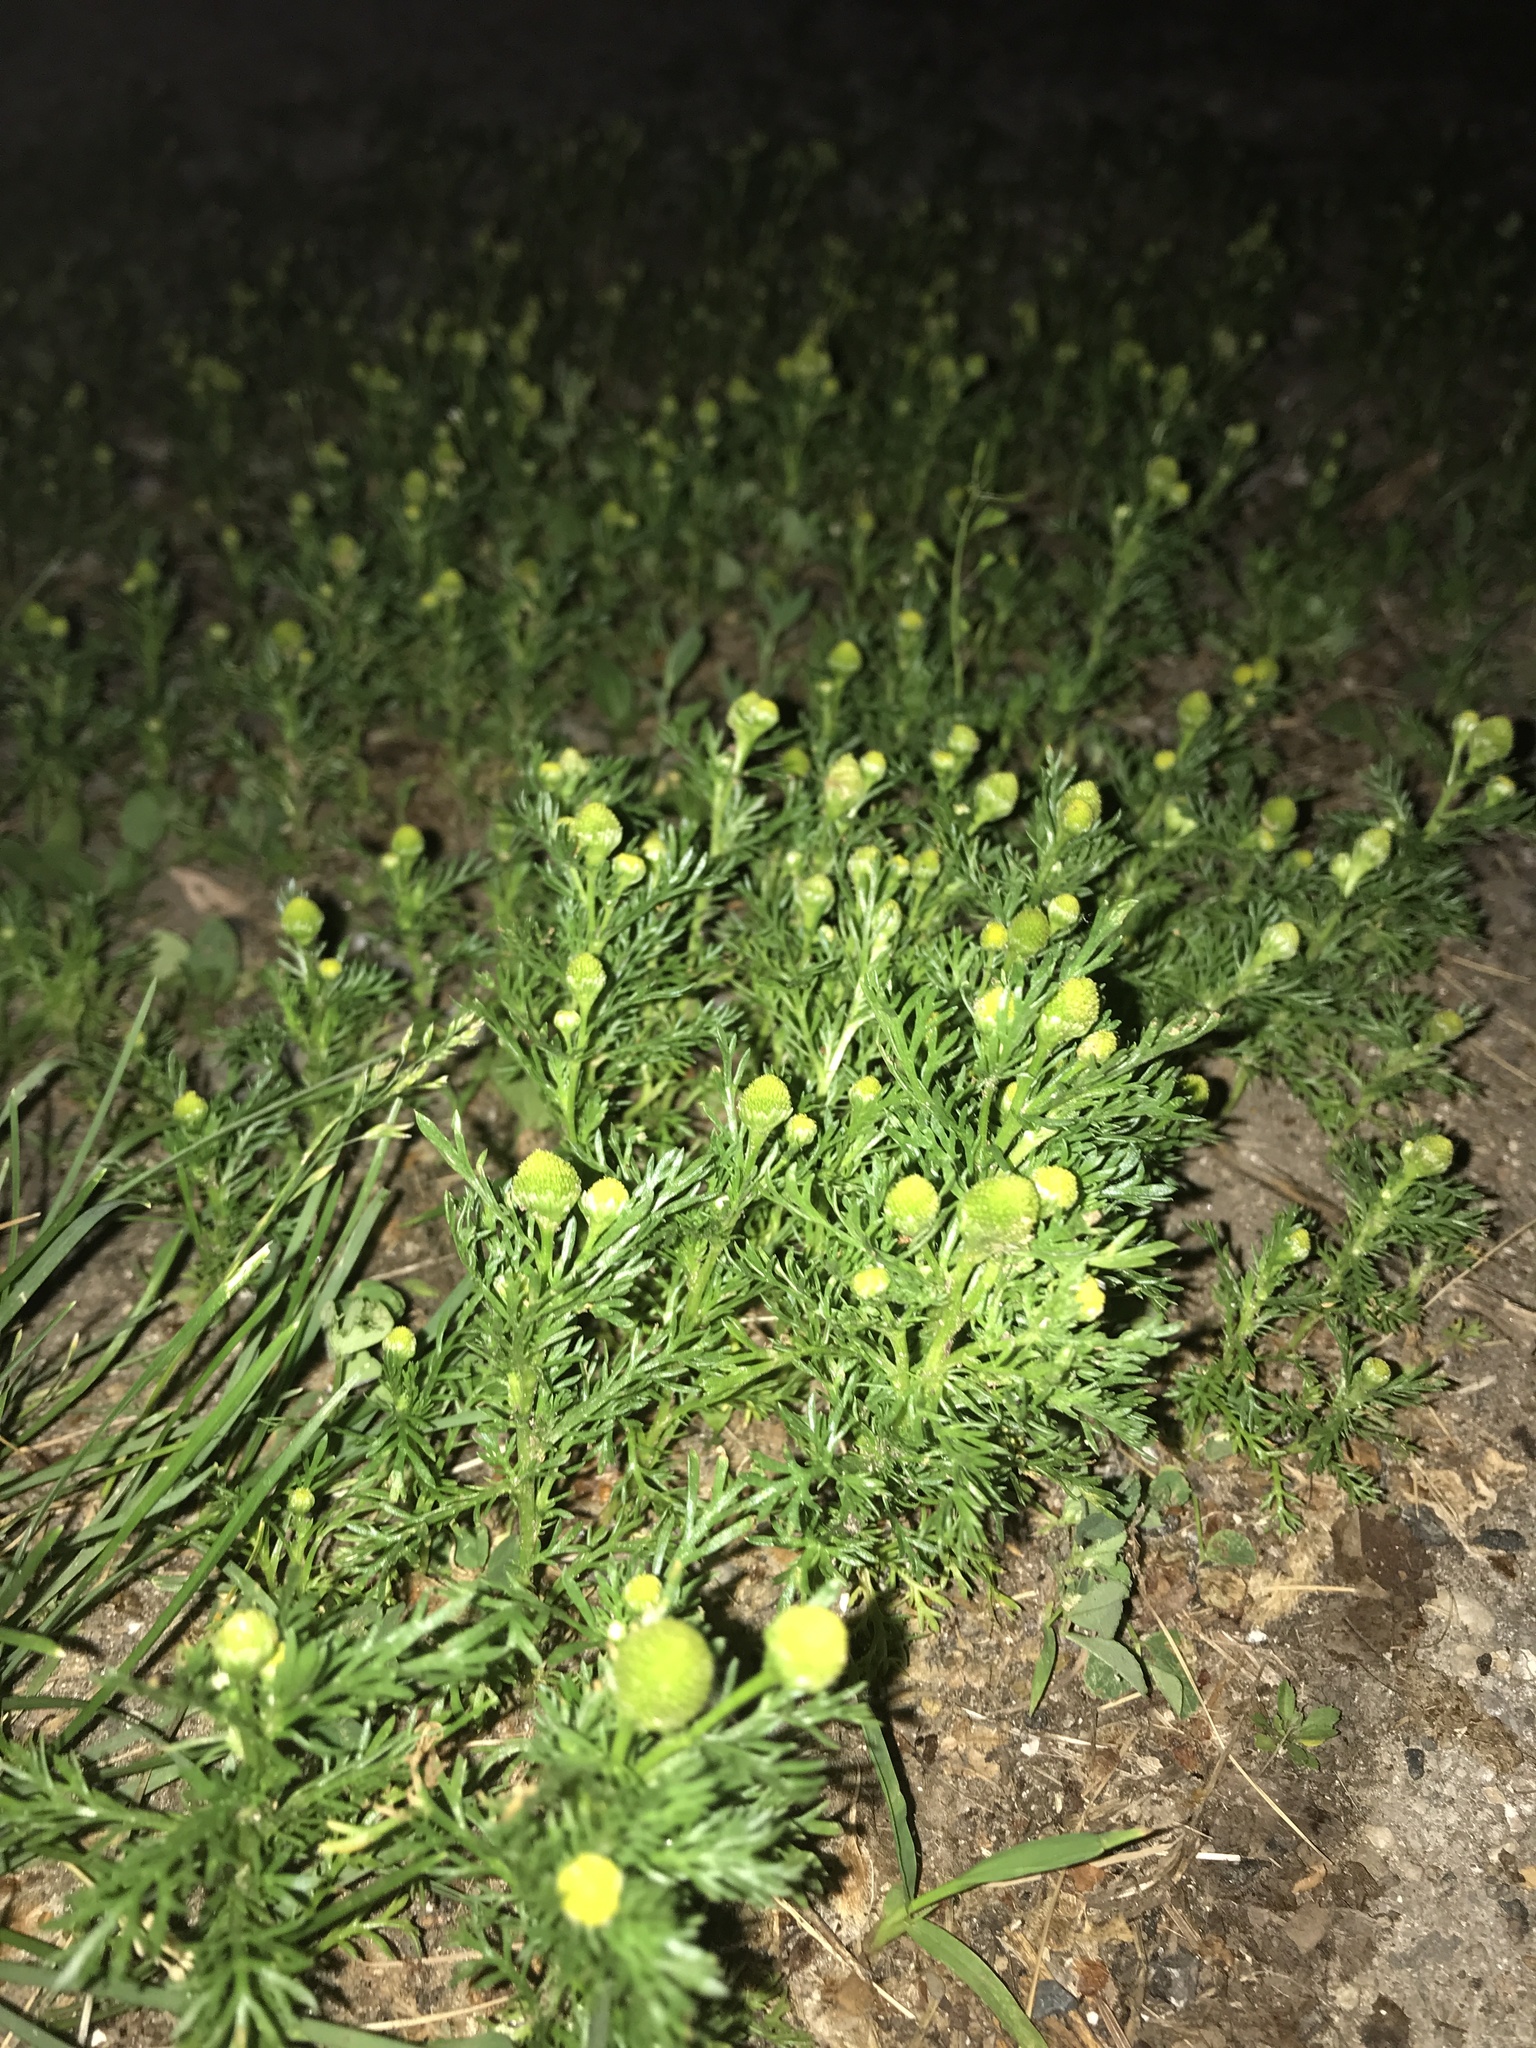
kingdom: Plantae
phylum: Tracheophyta
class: Magnoliopsida
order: Asterales
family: Asteraceae
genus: Matricaria
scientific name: Matricaria discoidea
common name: Disc mayweed
